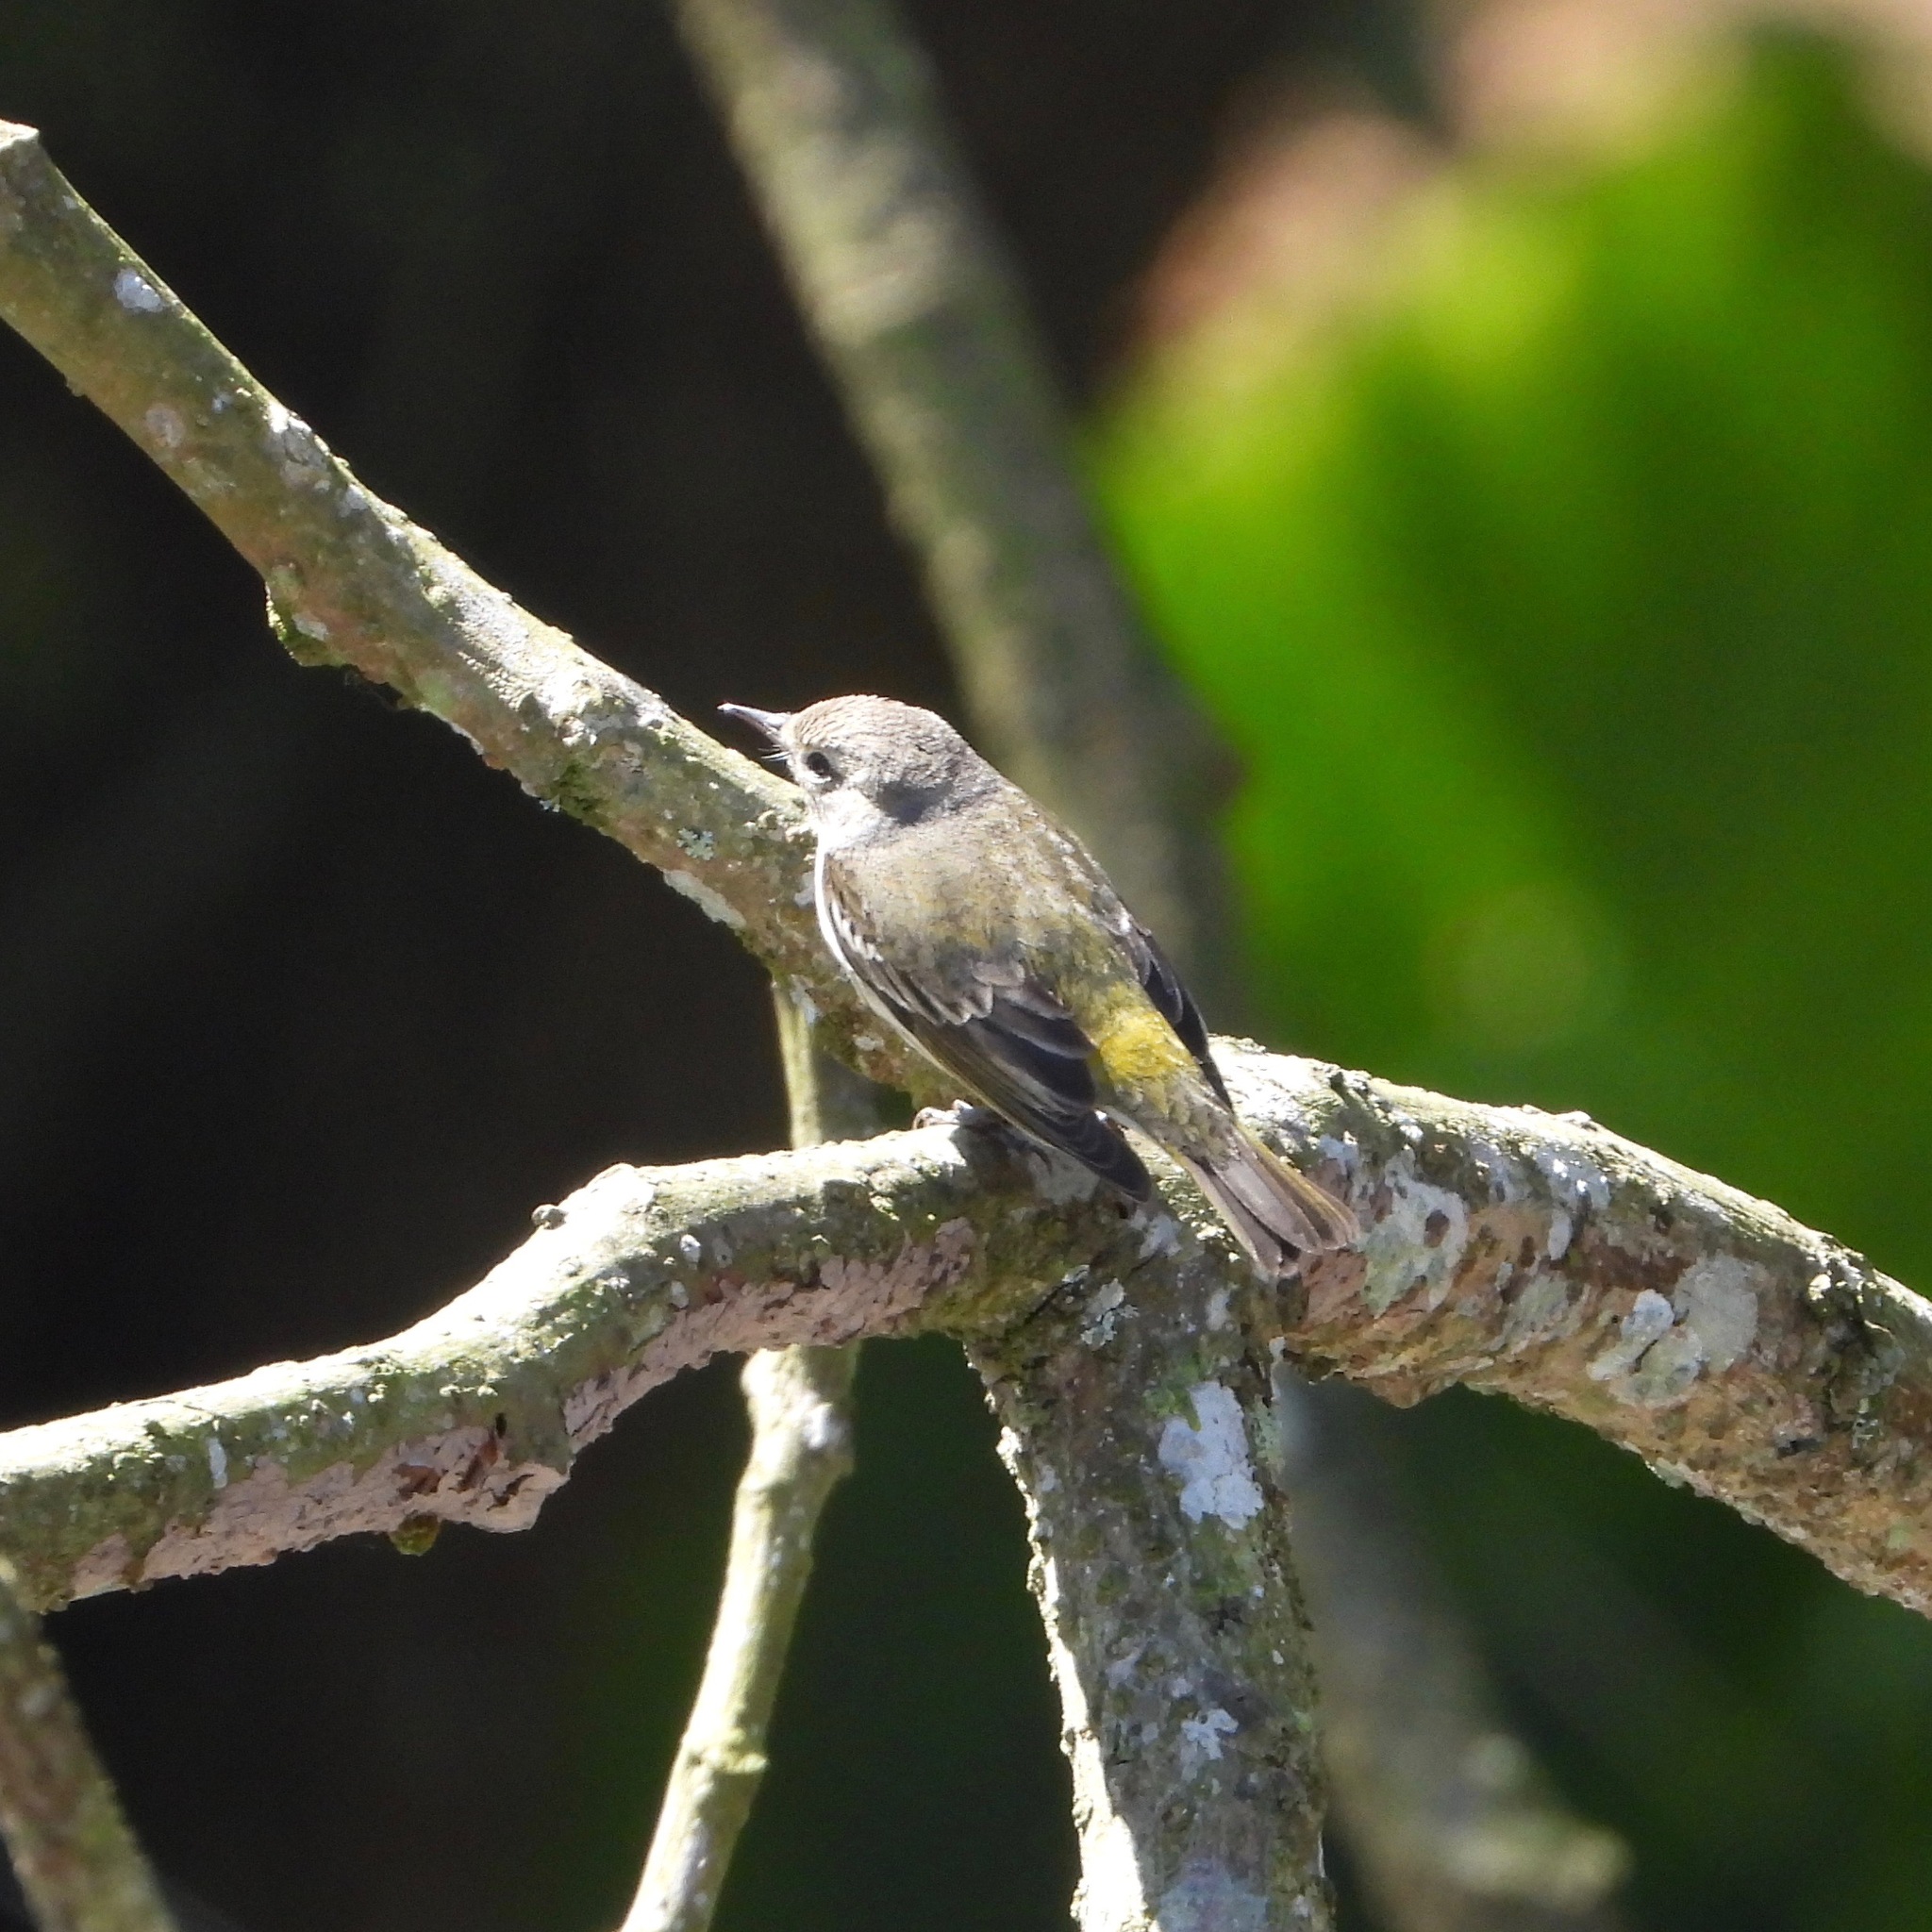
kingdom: Animalia
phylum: Chordata
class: Aves
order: Passeriformes
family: Parulidae
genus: Setophaga
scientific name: Setophaga tigrina
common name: Cape may warbler
